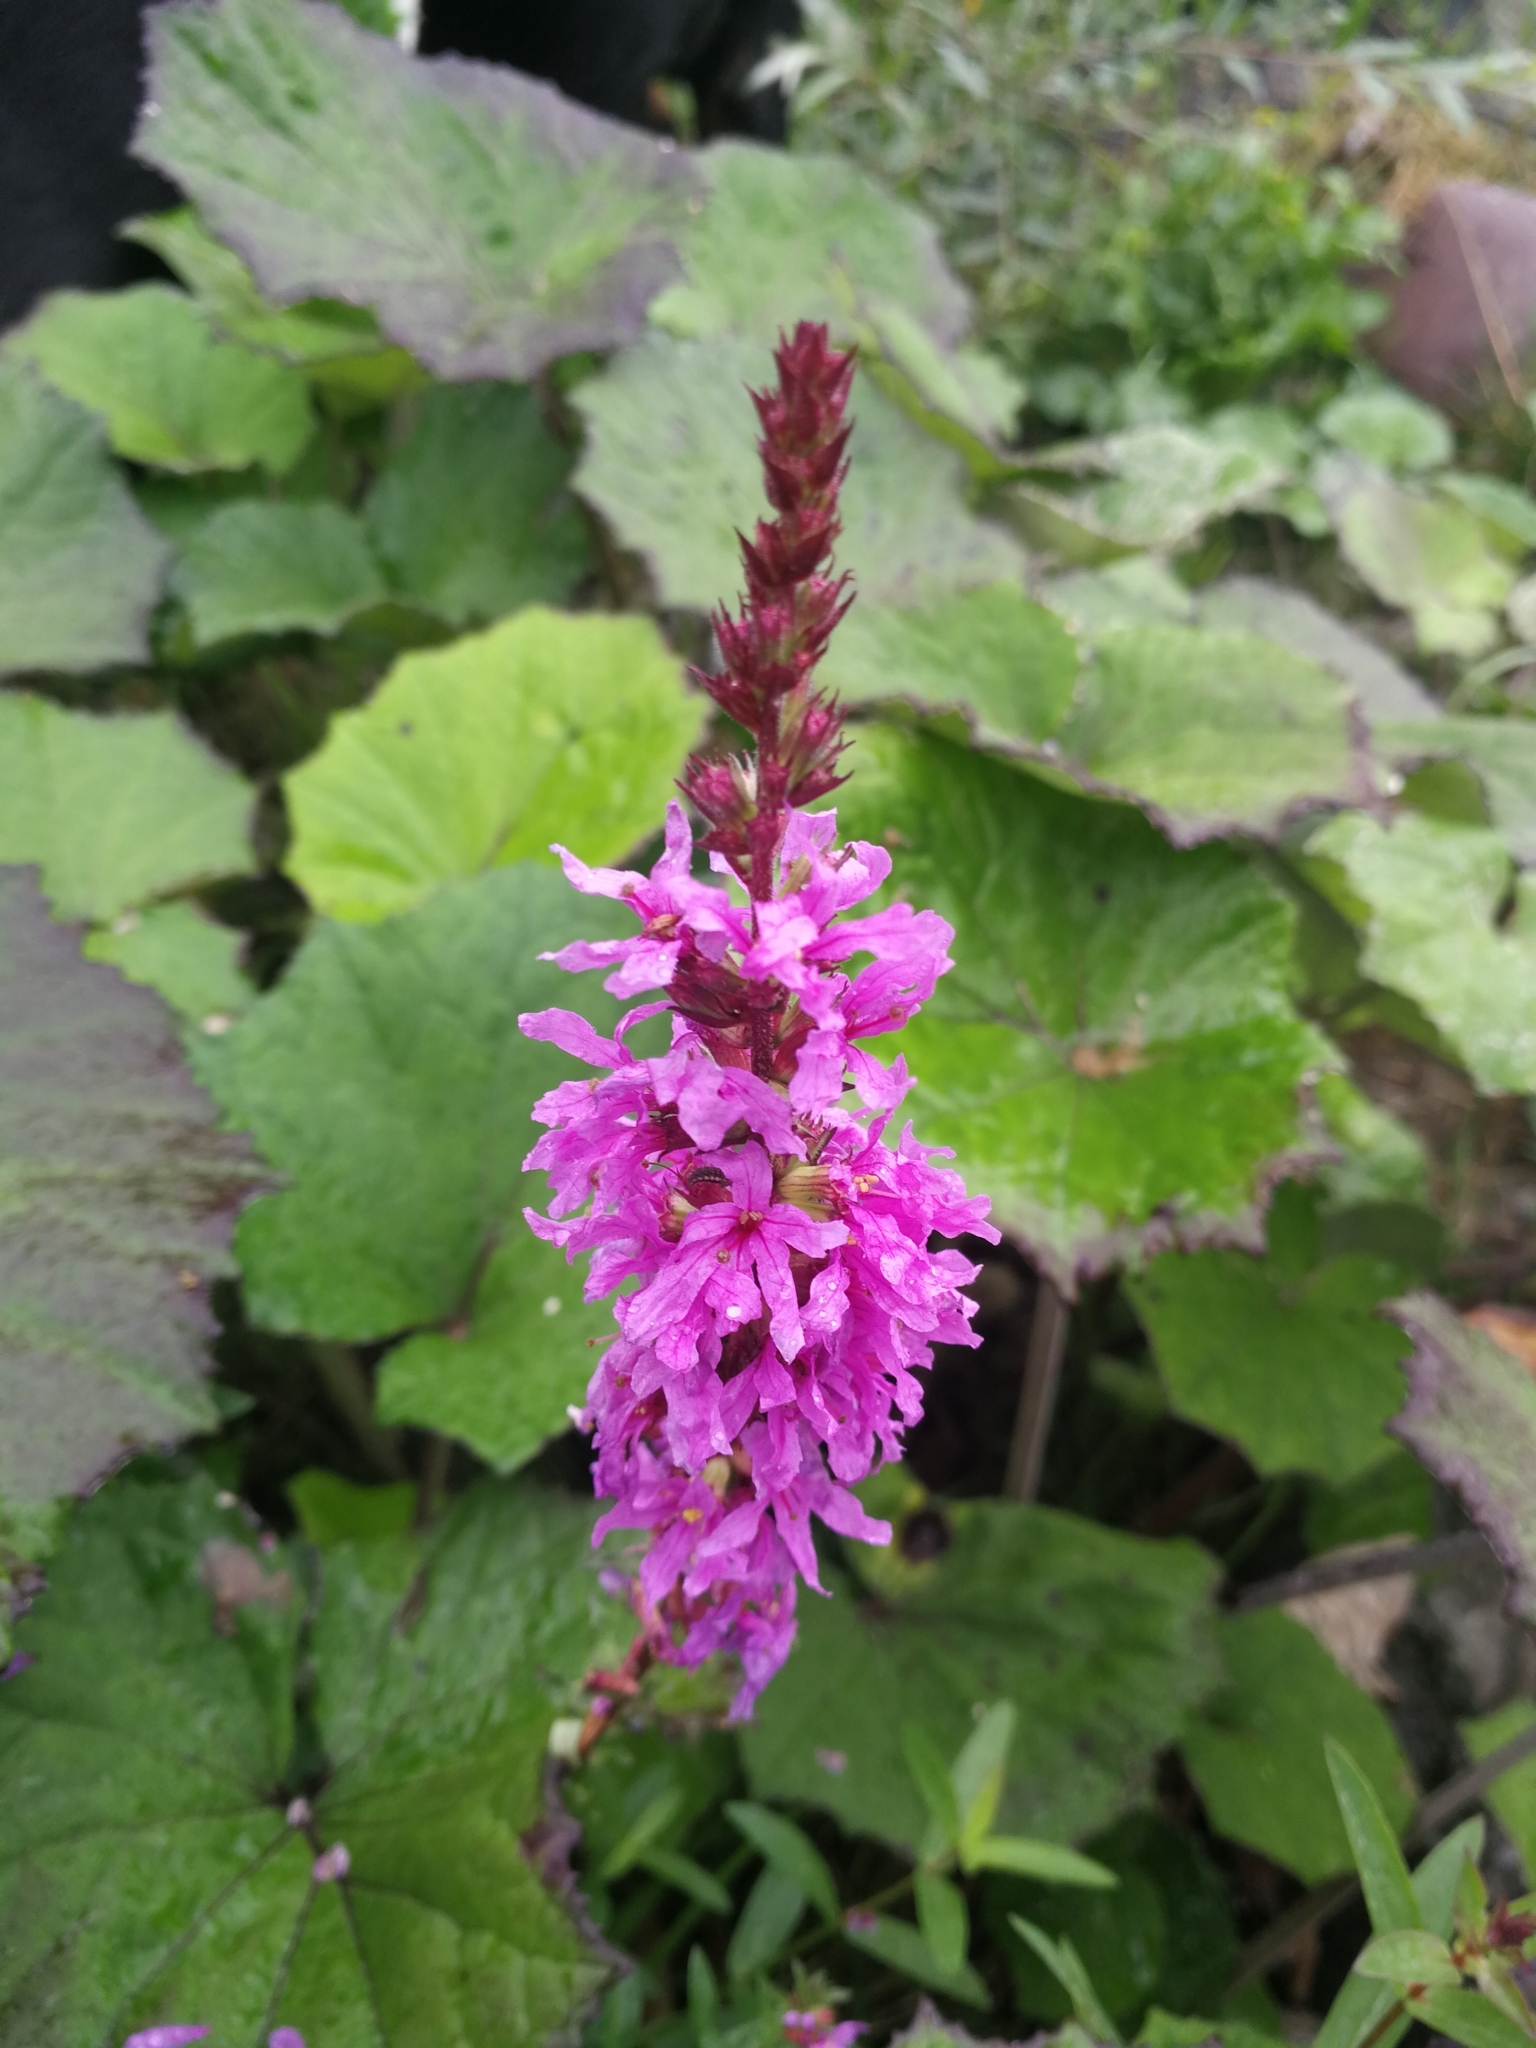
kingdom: Plantae
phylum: Tracheophyta
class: Magnoliopsida
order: Myrtales
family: Lythraceae
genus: Lythrum
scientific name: Lythrum salicaria
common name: Purple loosestrife
